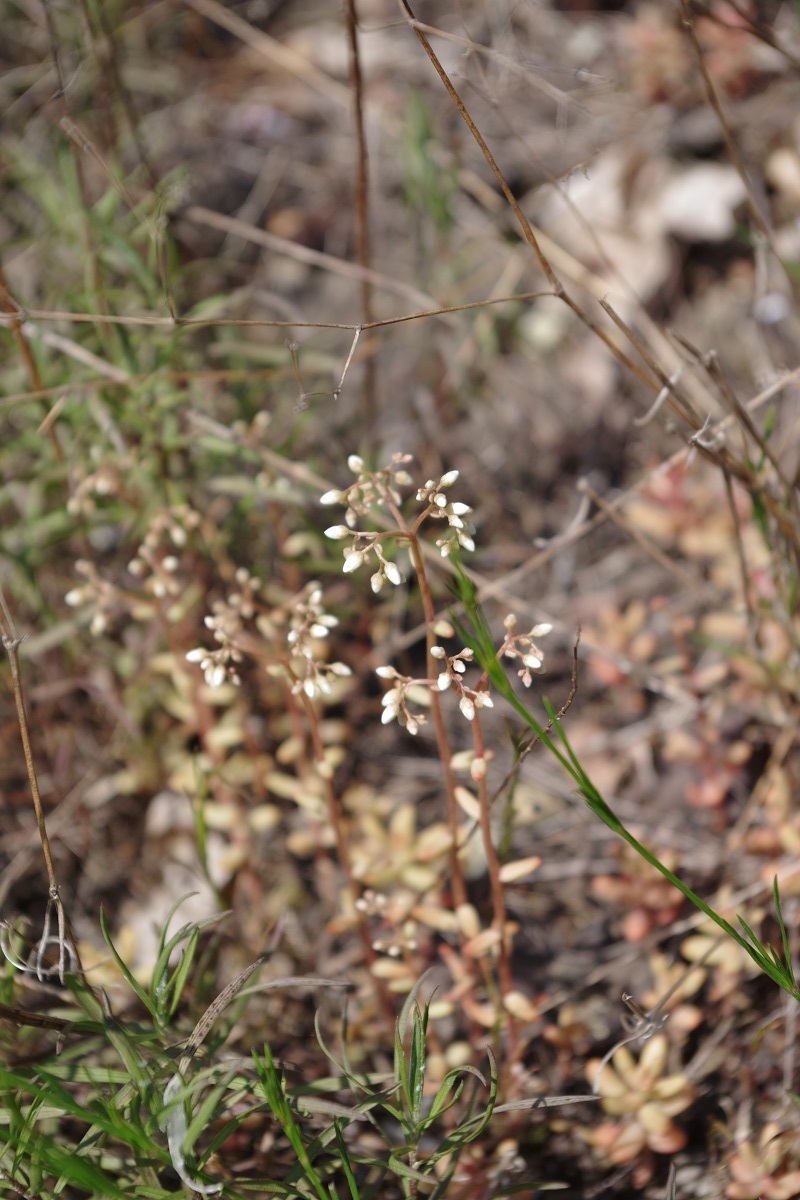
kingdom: Plantae
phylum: Tracheophyta
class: Magnoliopsida
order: Saxifragales
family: Crassulaceae
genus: Sedum
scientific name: Sedum album
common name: White stonecrop
